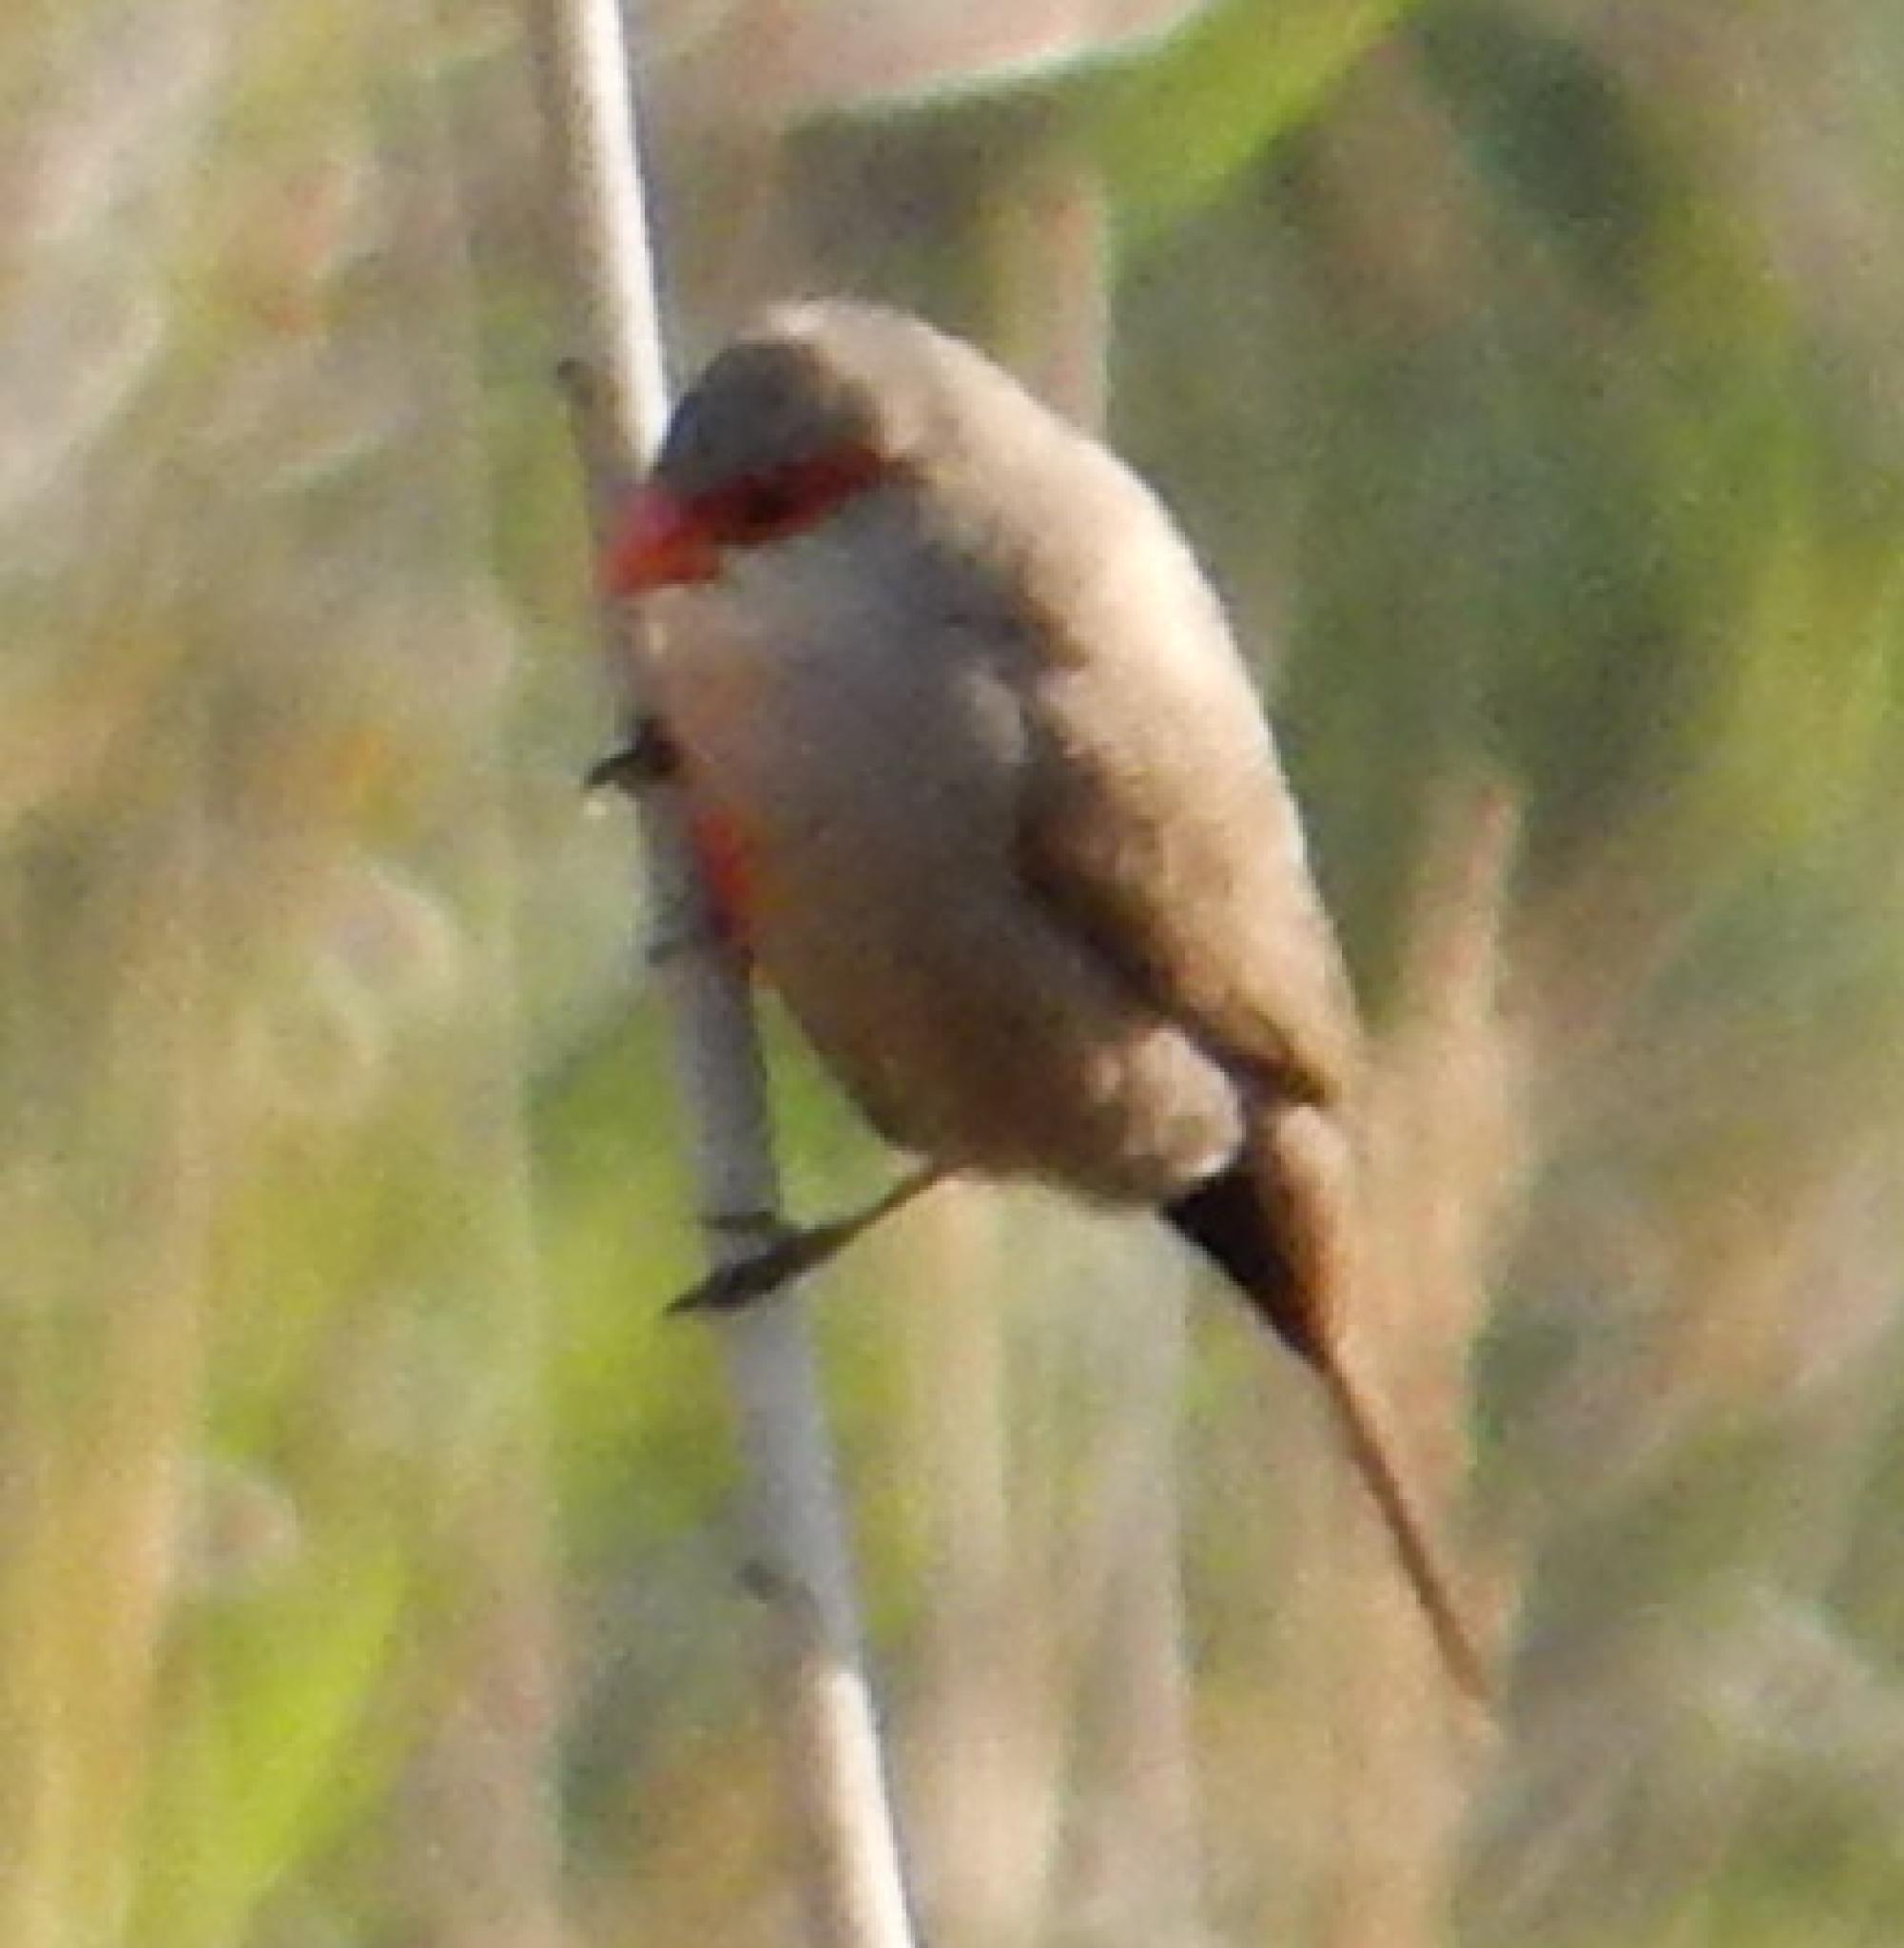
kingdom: Animalia
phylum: Chordata
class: Aves
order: Passeriformes
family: Estrildidae
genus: Estrilda
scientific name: Estrilda astrild
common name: Common waxbill
